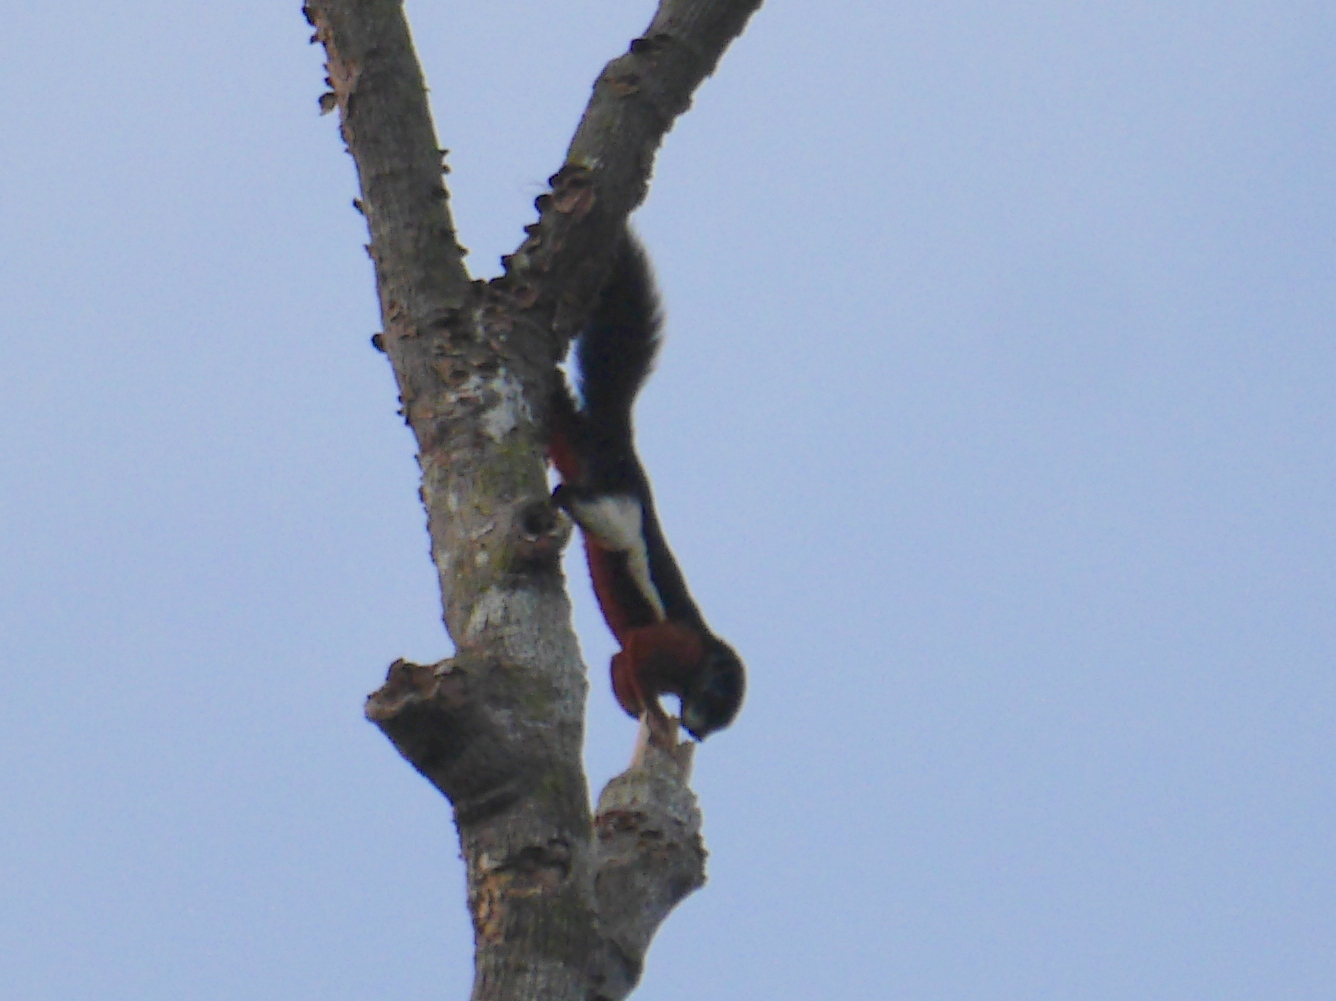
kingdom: Animalia
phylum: Chordata
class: Mammalia
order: Rodentia
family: Sciuridae
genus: Callosciurus
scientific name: Callosciurus prevostii
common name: Prevost's squirrel
